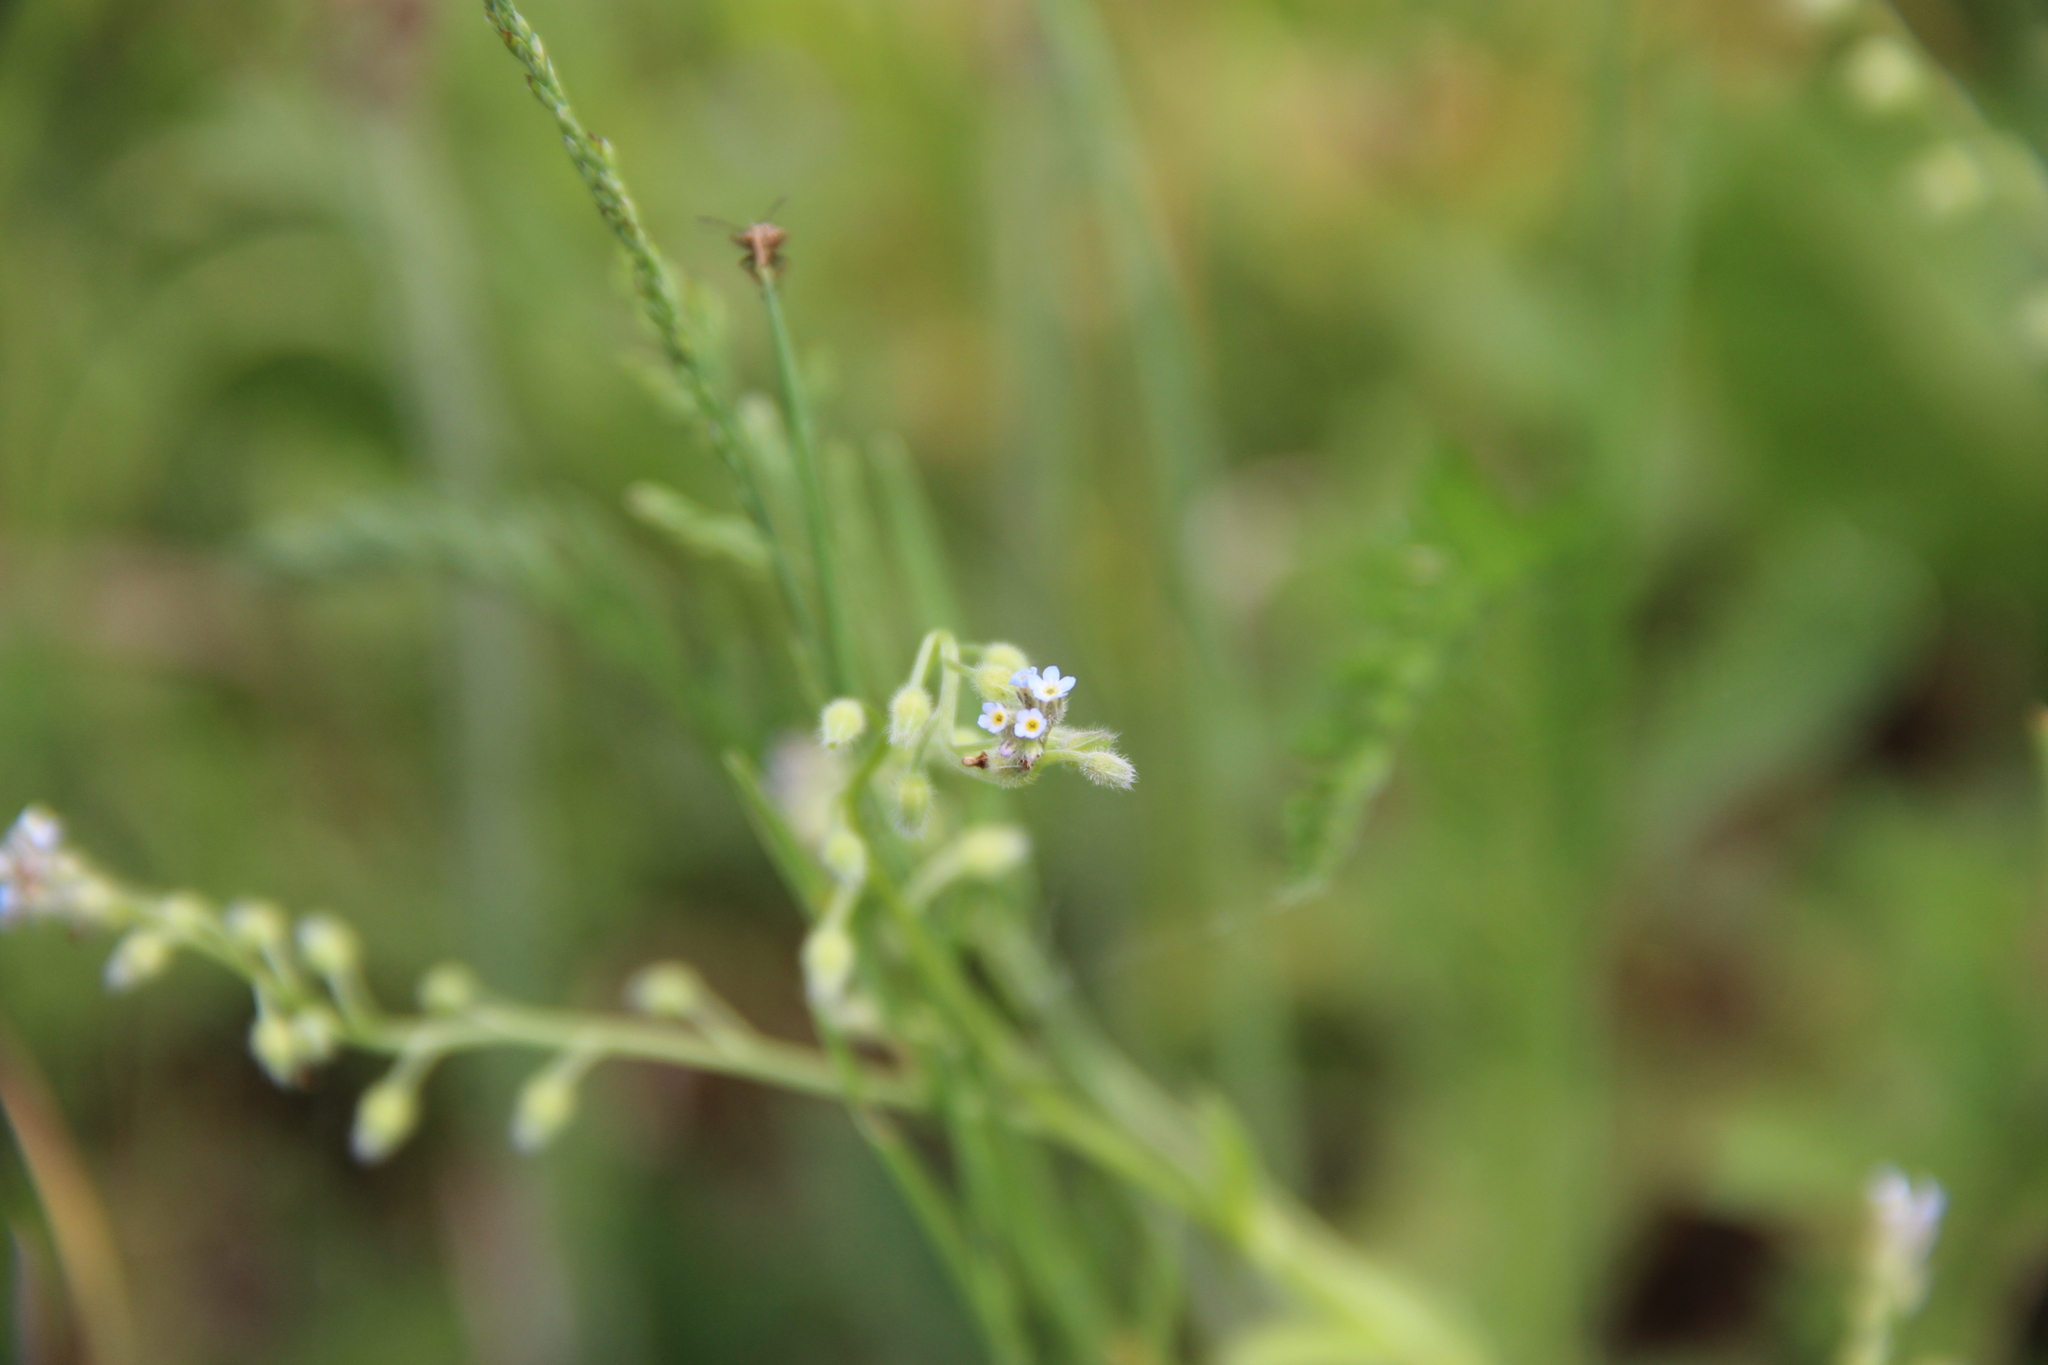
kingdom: Plantae
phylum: Tracheophyta
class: Magnoliopsida
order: Boraginales
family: Boraginaceae
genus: Myosotis
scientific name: Myosotis arvensis
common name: Field forget-me-not
